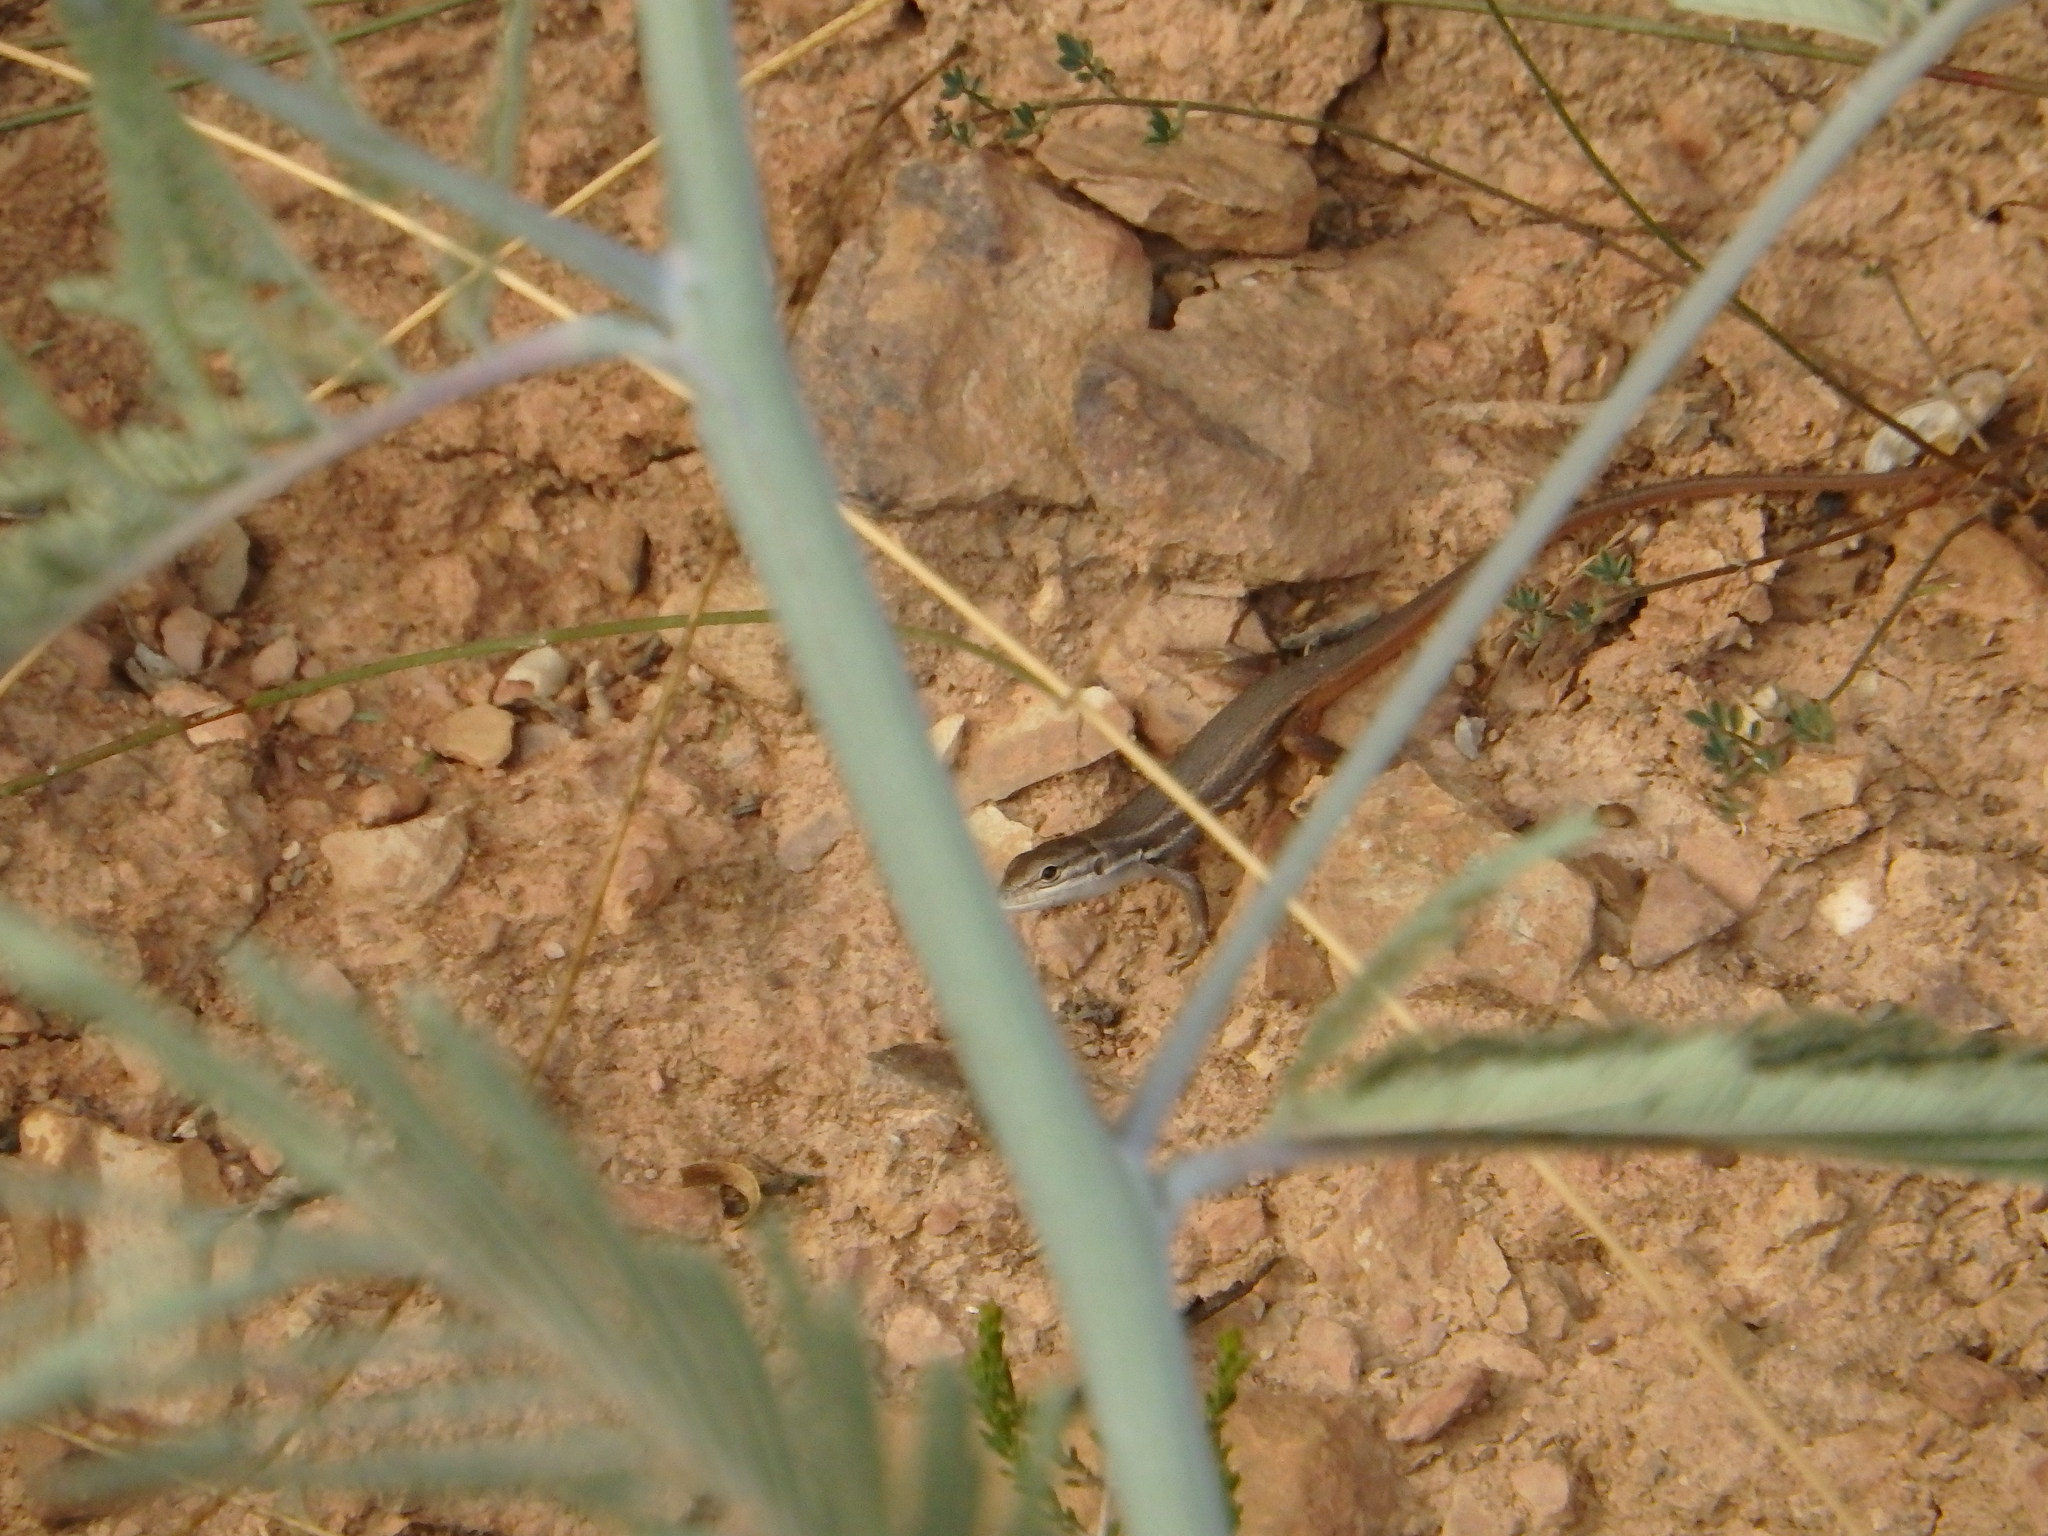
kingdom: Animalia
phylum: Chordata
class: Squamata
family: Lacertidae
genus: Psammodromus
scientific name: Psammodromus algirus
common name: Algerian psammodromus
